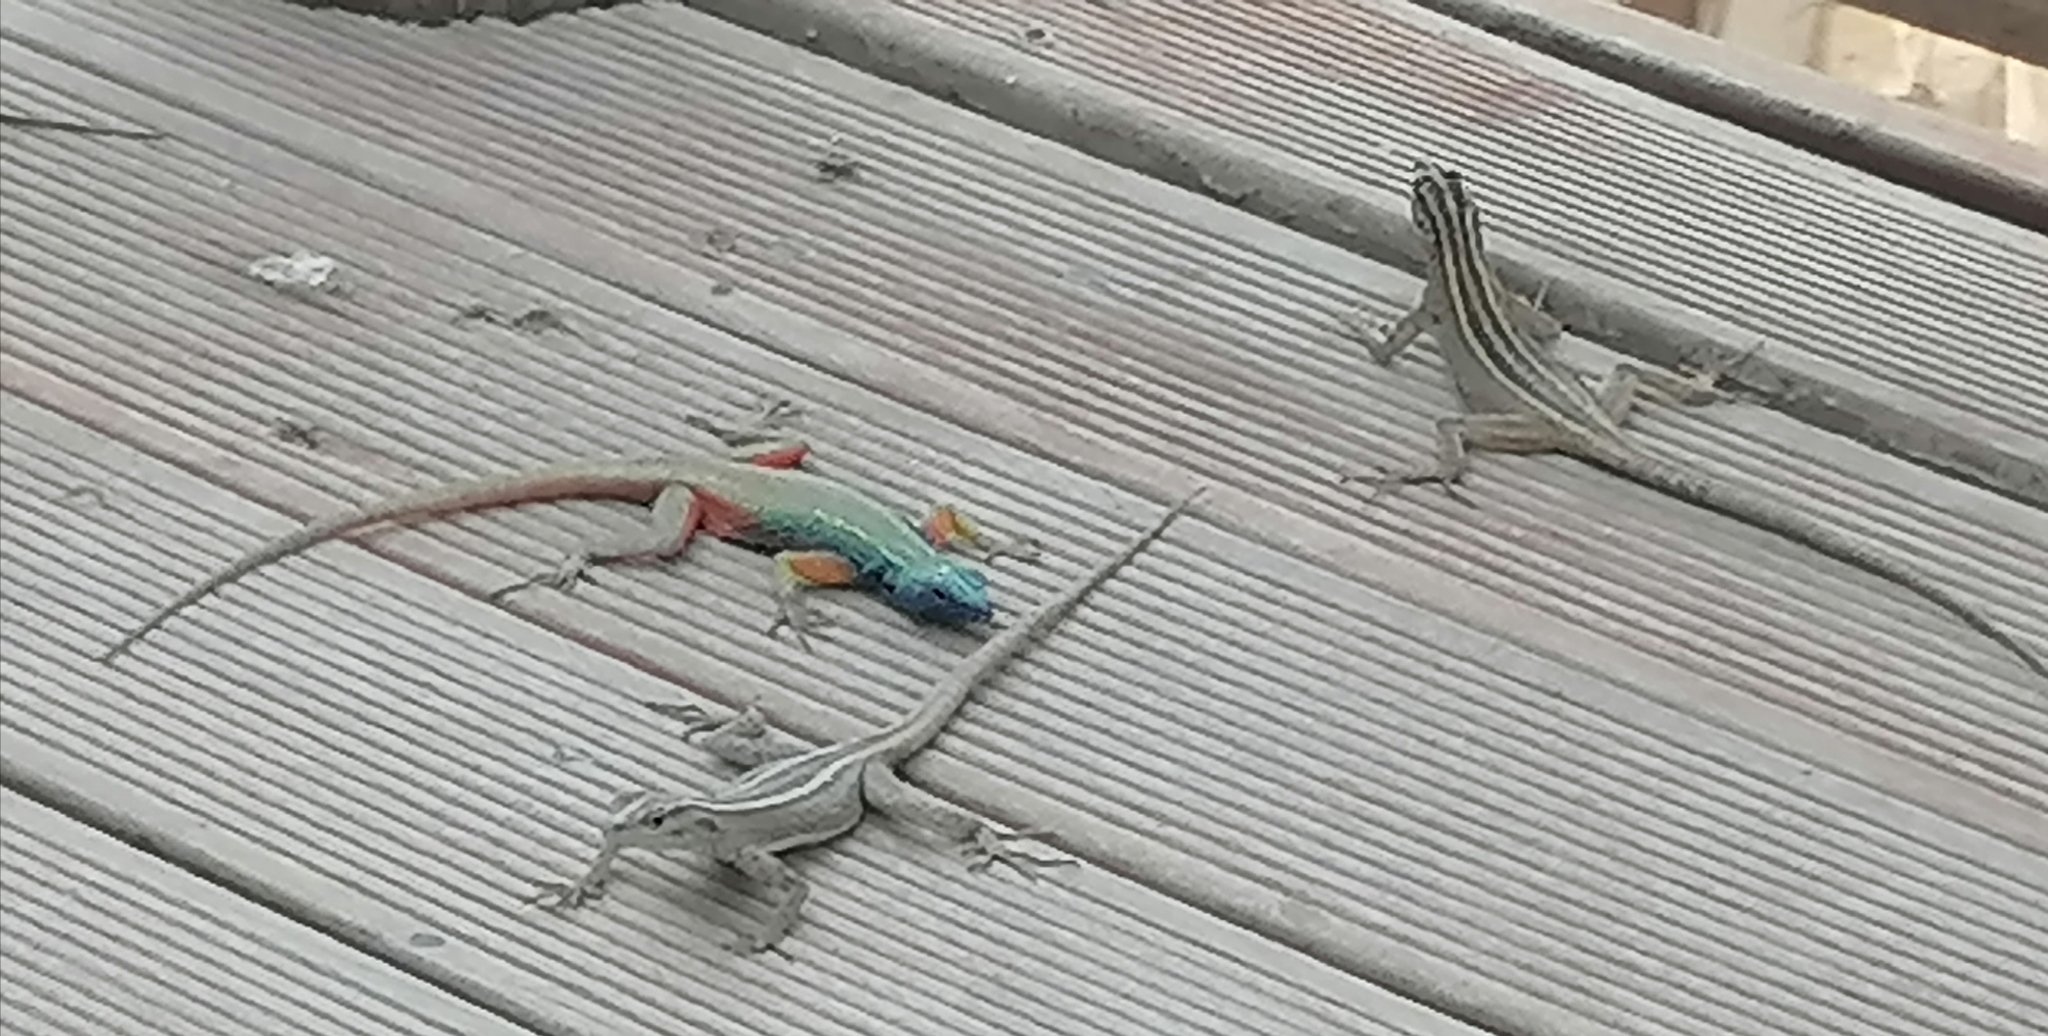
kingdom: Animalia
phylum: Chordata
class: Squamata
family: Cordylidae
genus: Platysaurus
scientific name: Platysaurus broadleyi
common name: Augrabies flat lizard
